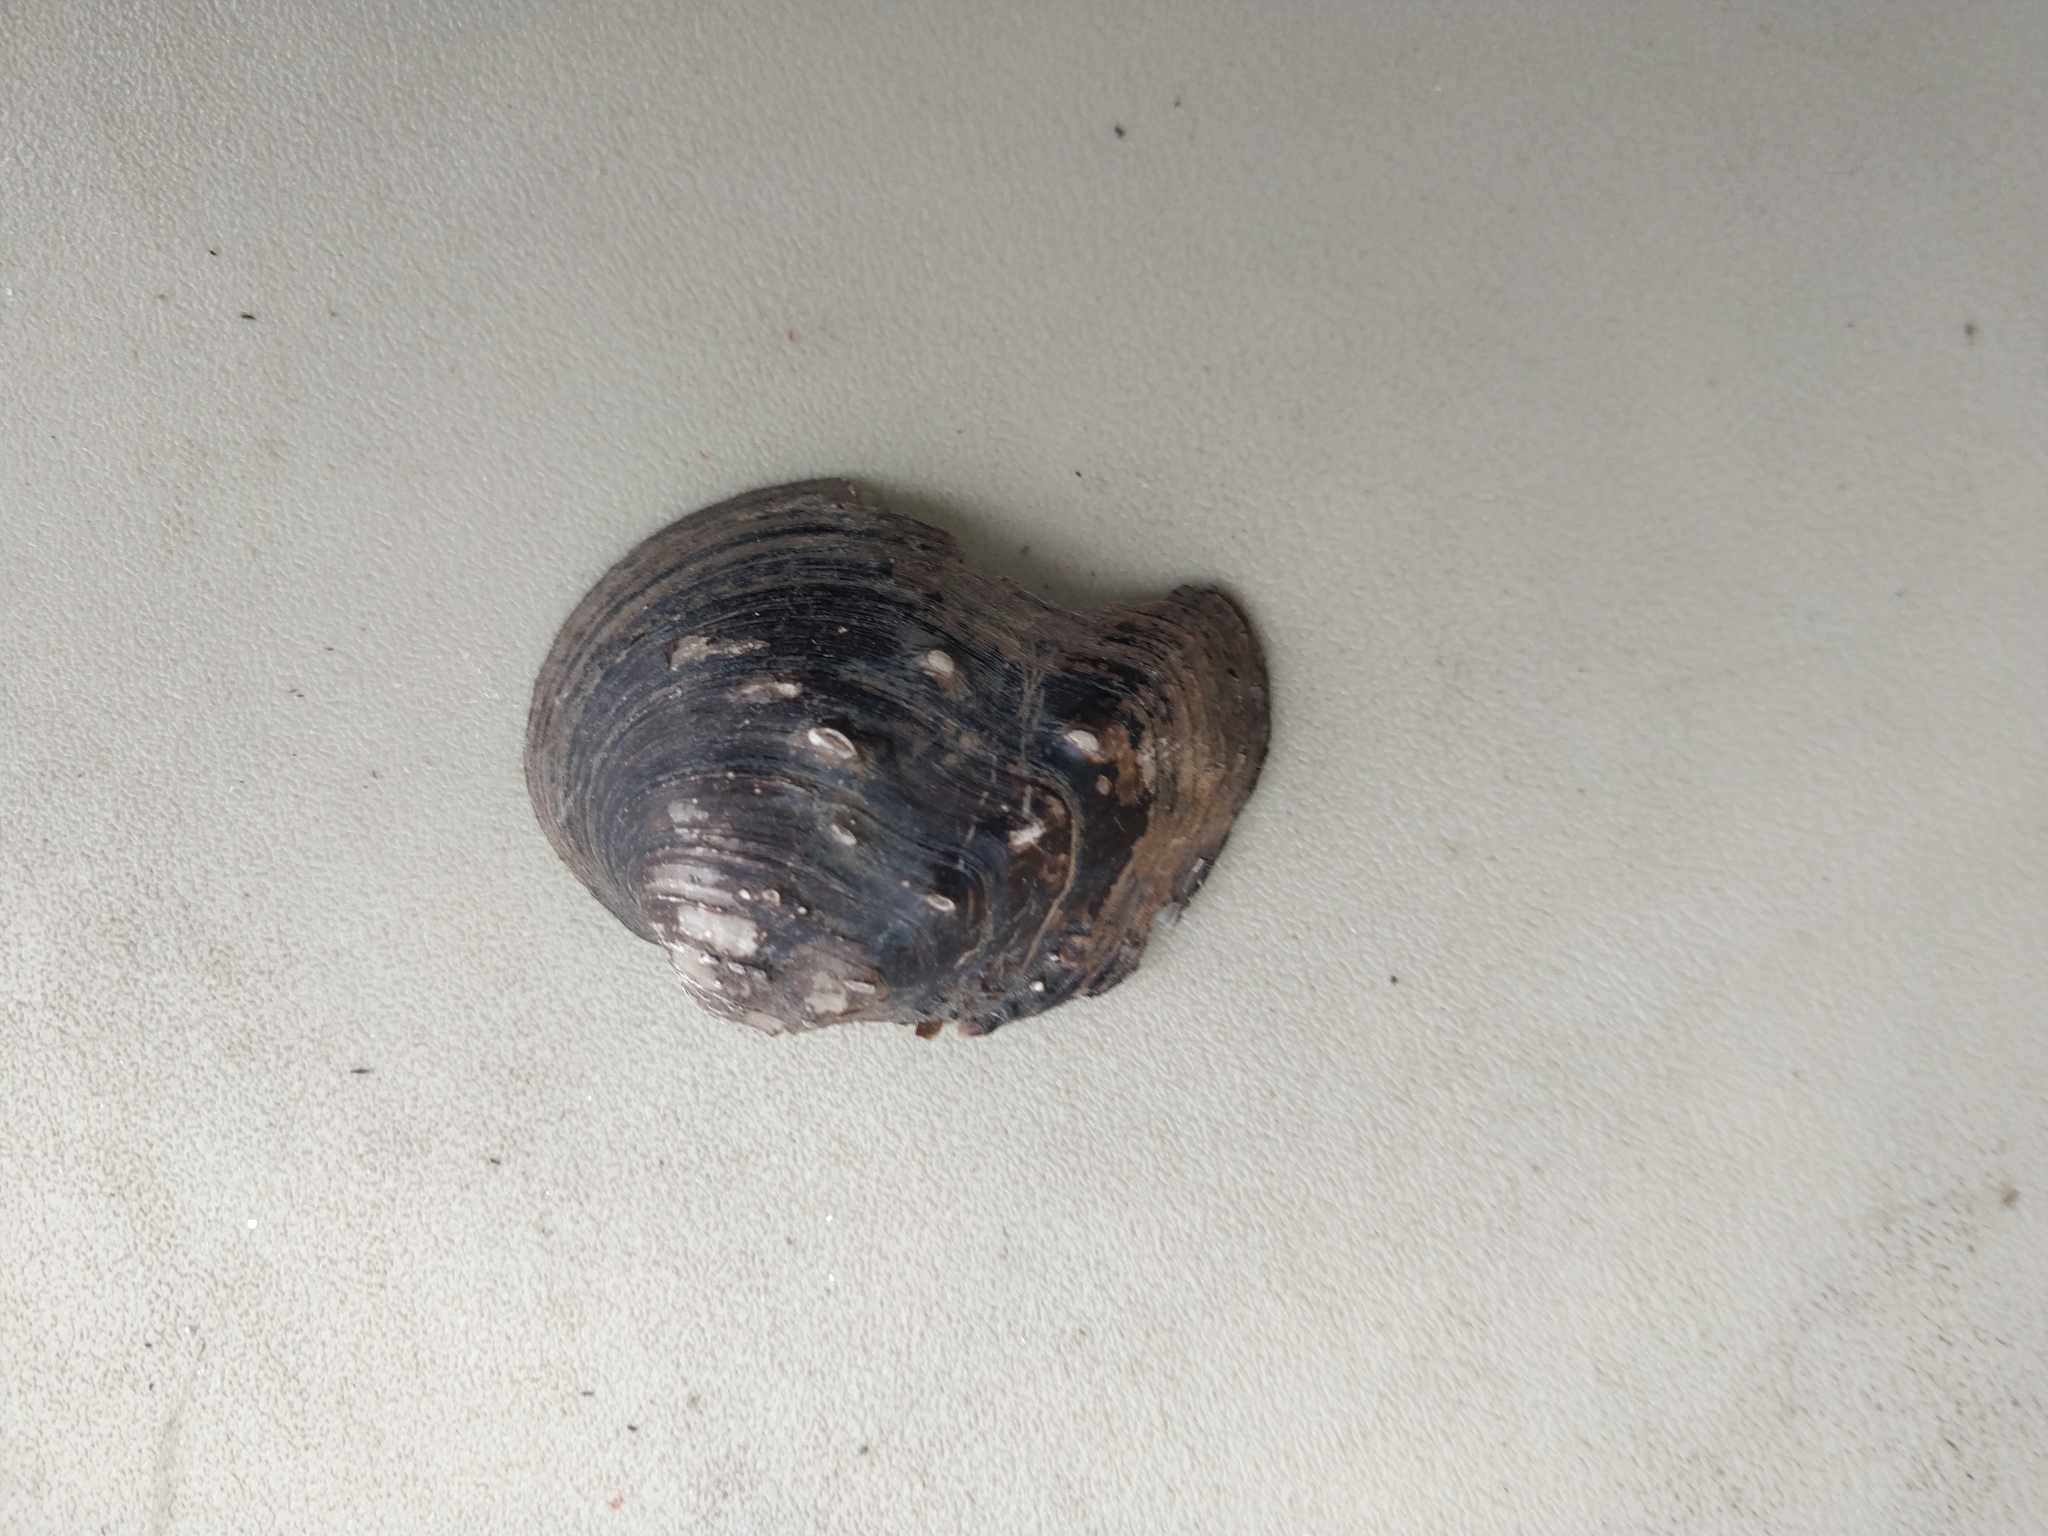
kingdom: Animalia
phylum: Mollusca
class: Bivalvia
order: Unionida
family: Unionidae
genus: Quadrula
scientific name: Quadrula quadrula
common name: Mapleleaf
